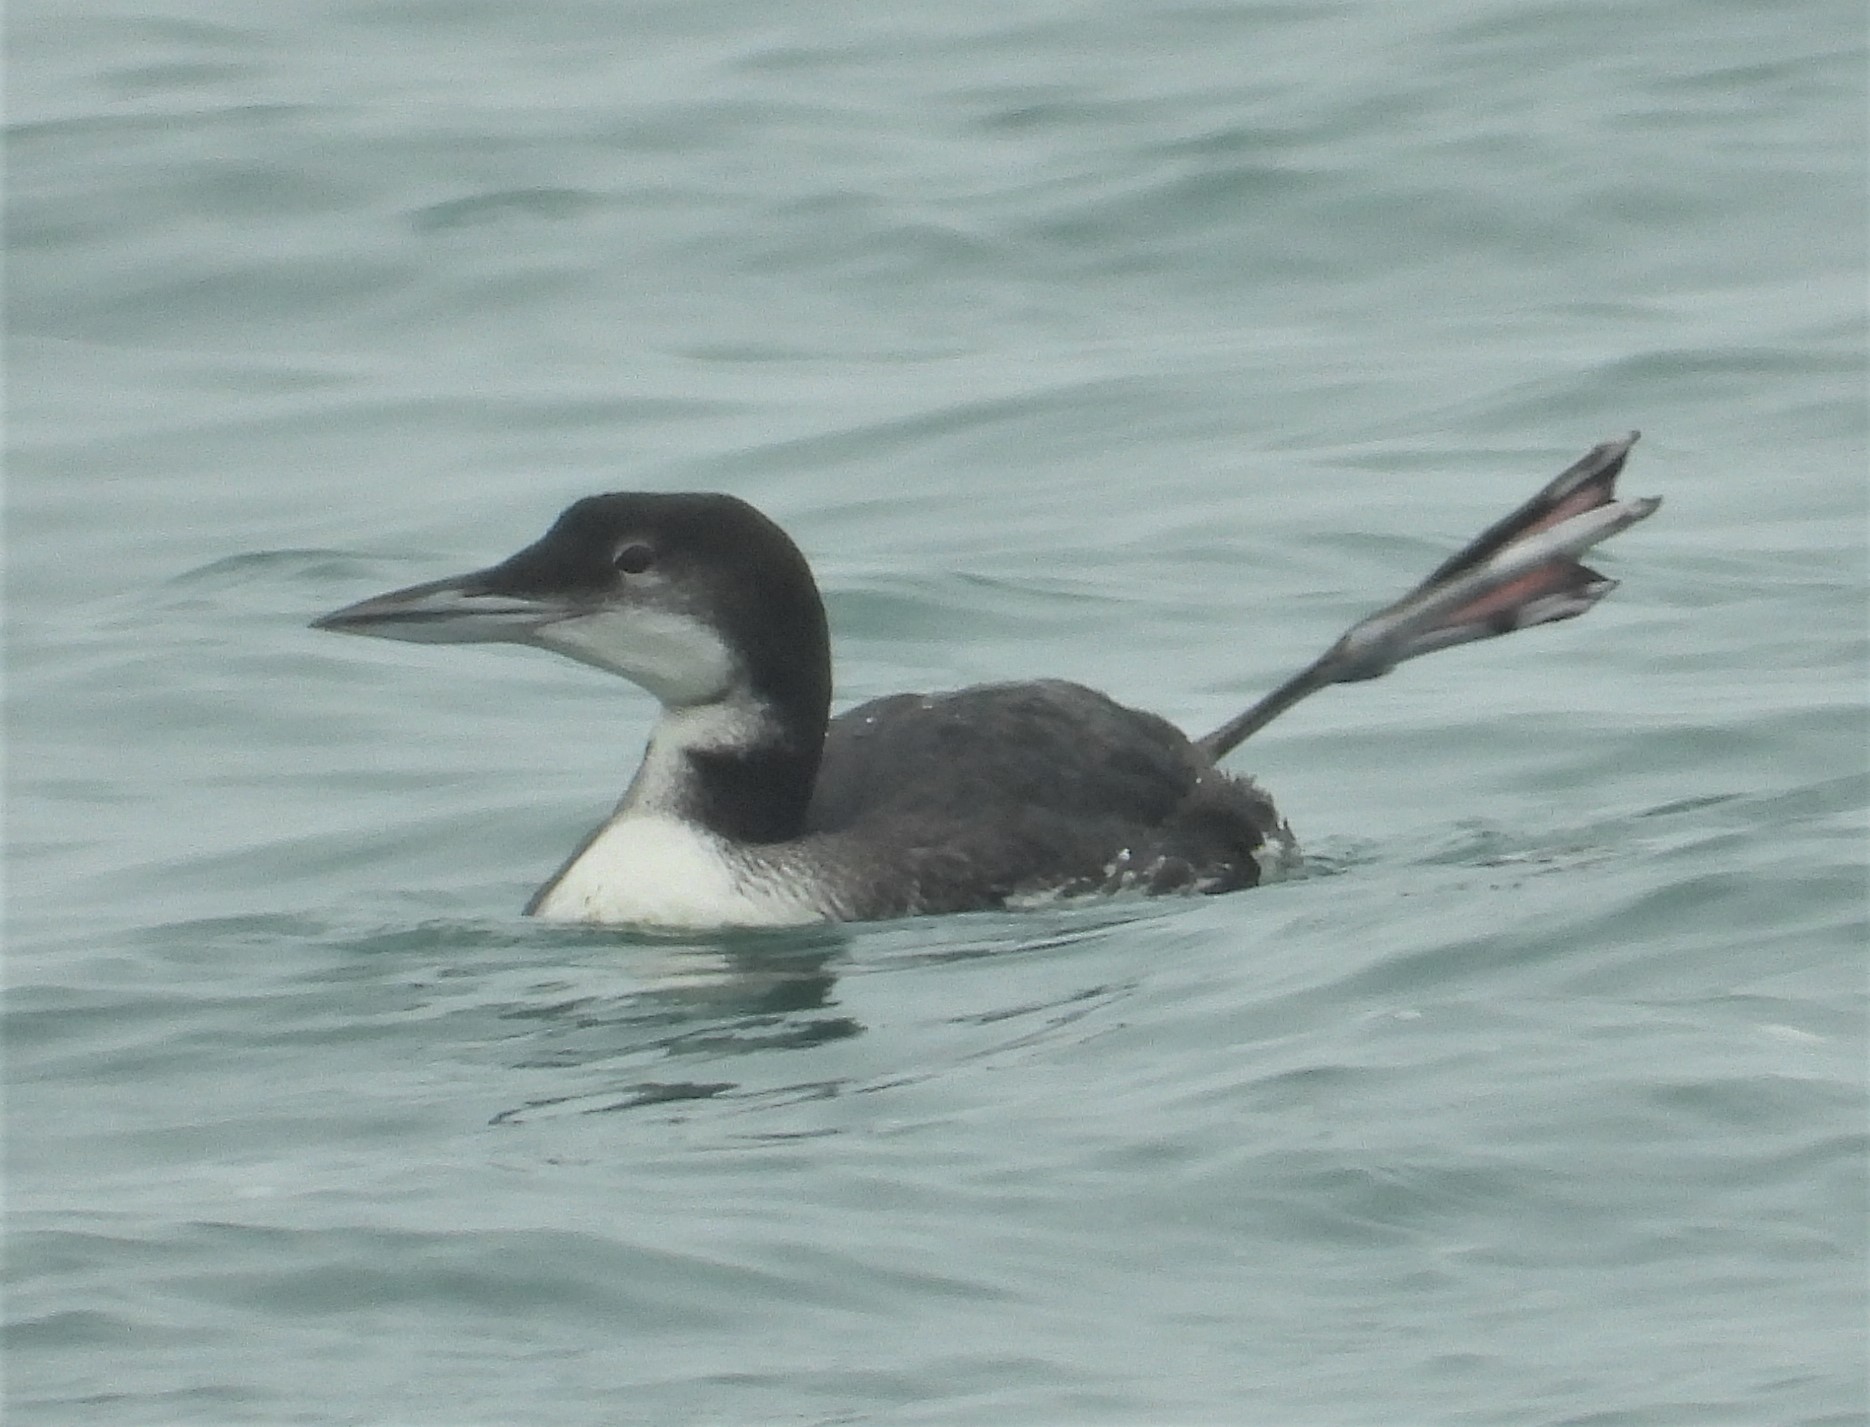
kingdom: Animalia
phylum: Chordata
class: Aves
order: Gaviiformes
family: Gaviidae
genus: Gavia
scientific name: Gavia immer
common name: Common loon
